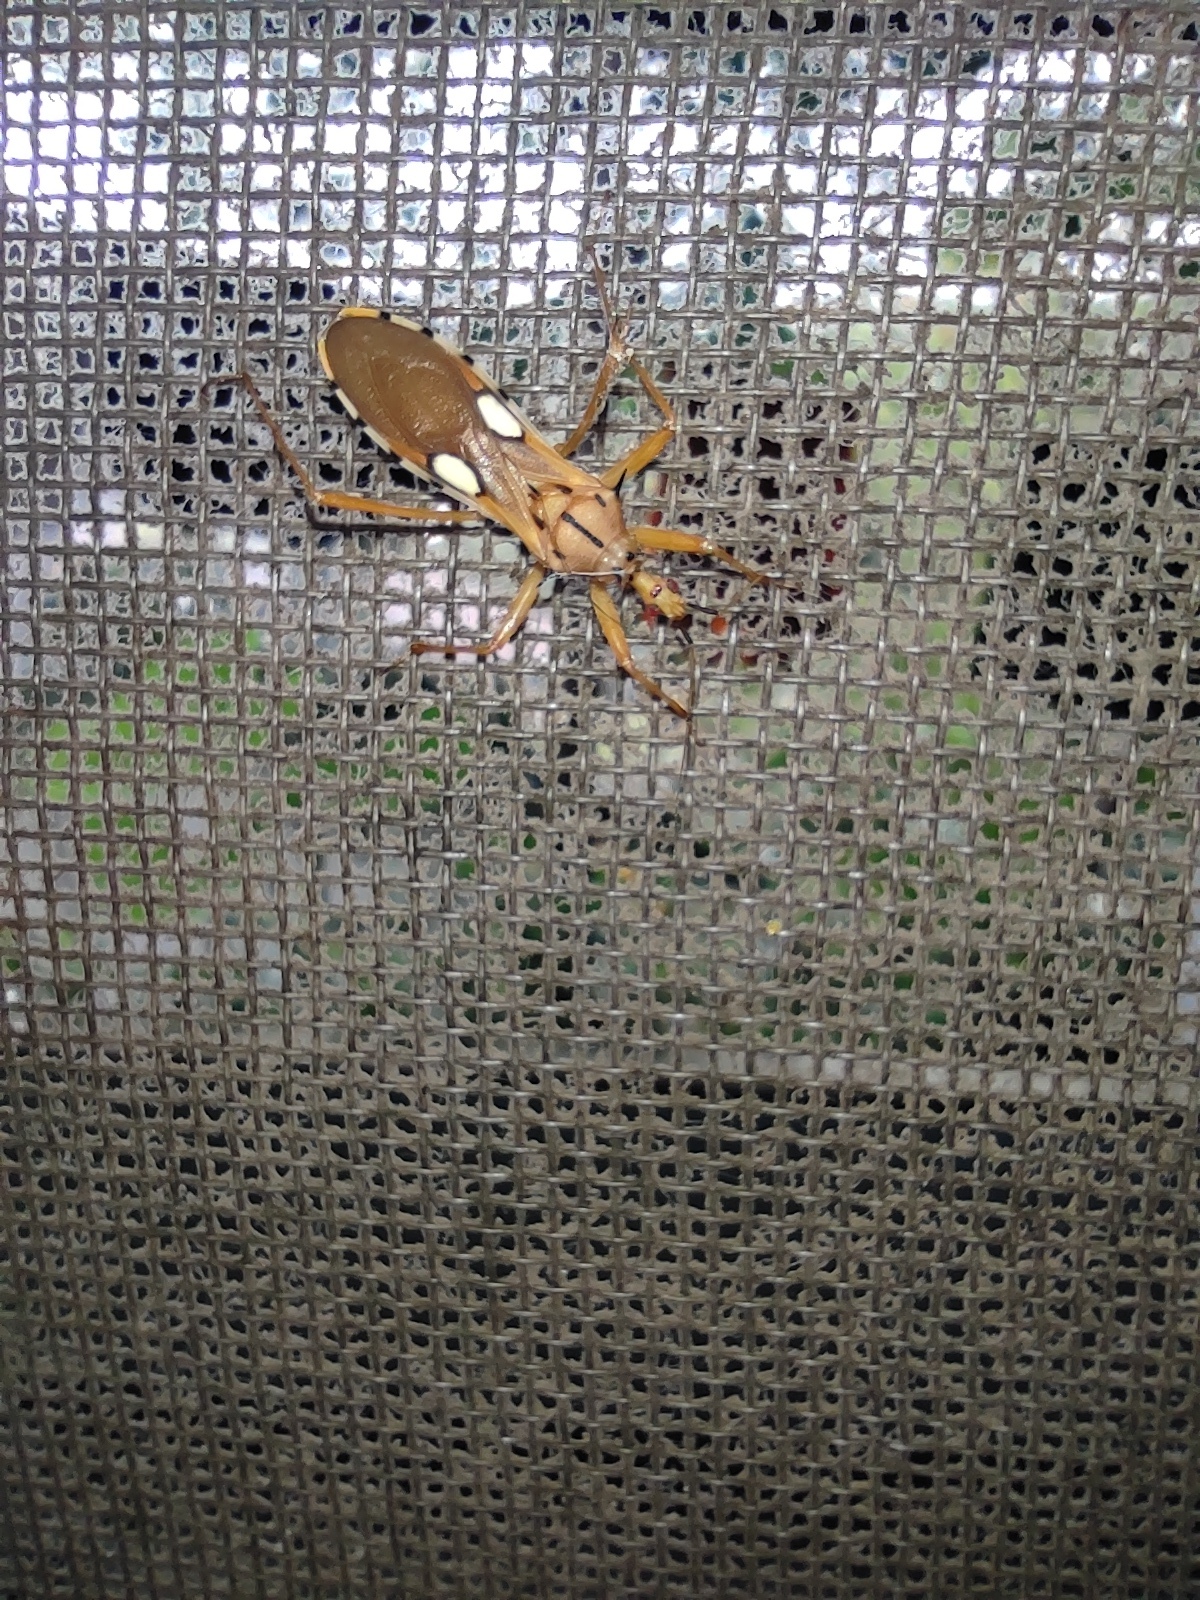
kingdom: Animalia
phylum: Arthropoda
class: Insecta
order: Hemiptera
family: Reduviidae
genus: Zelurus
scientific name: Zelurus eburneus
